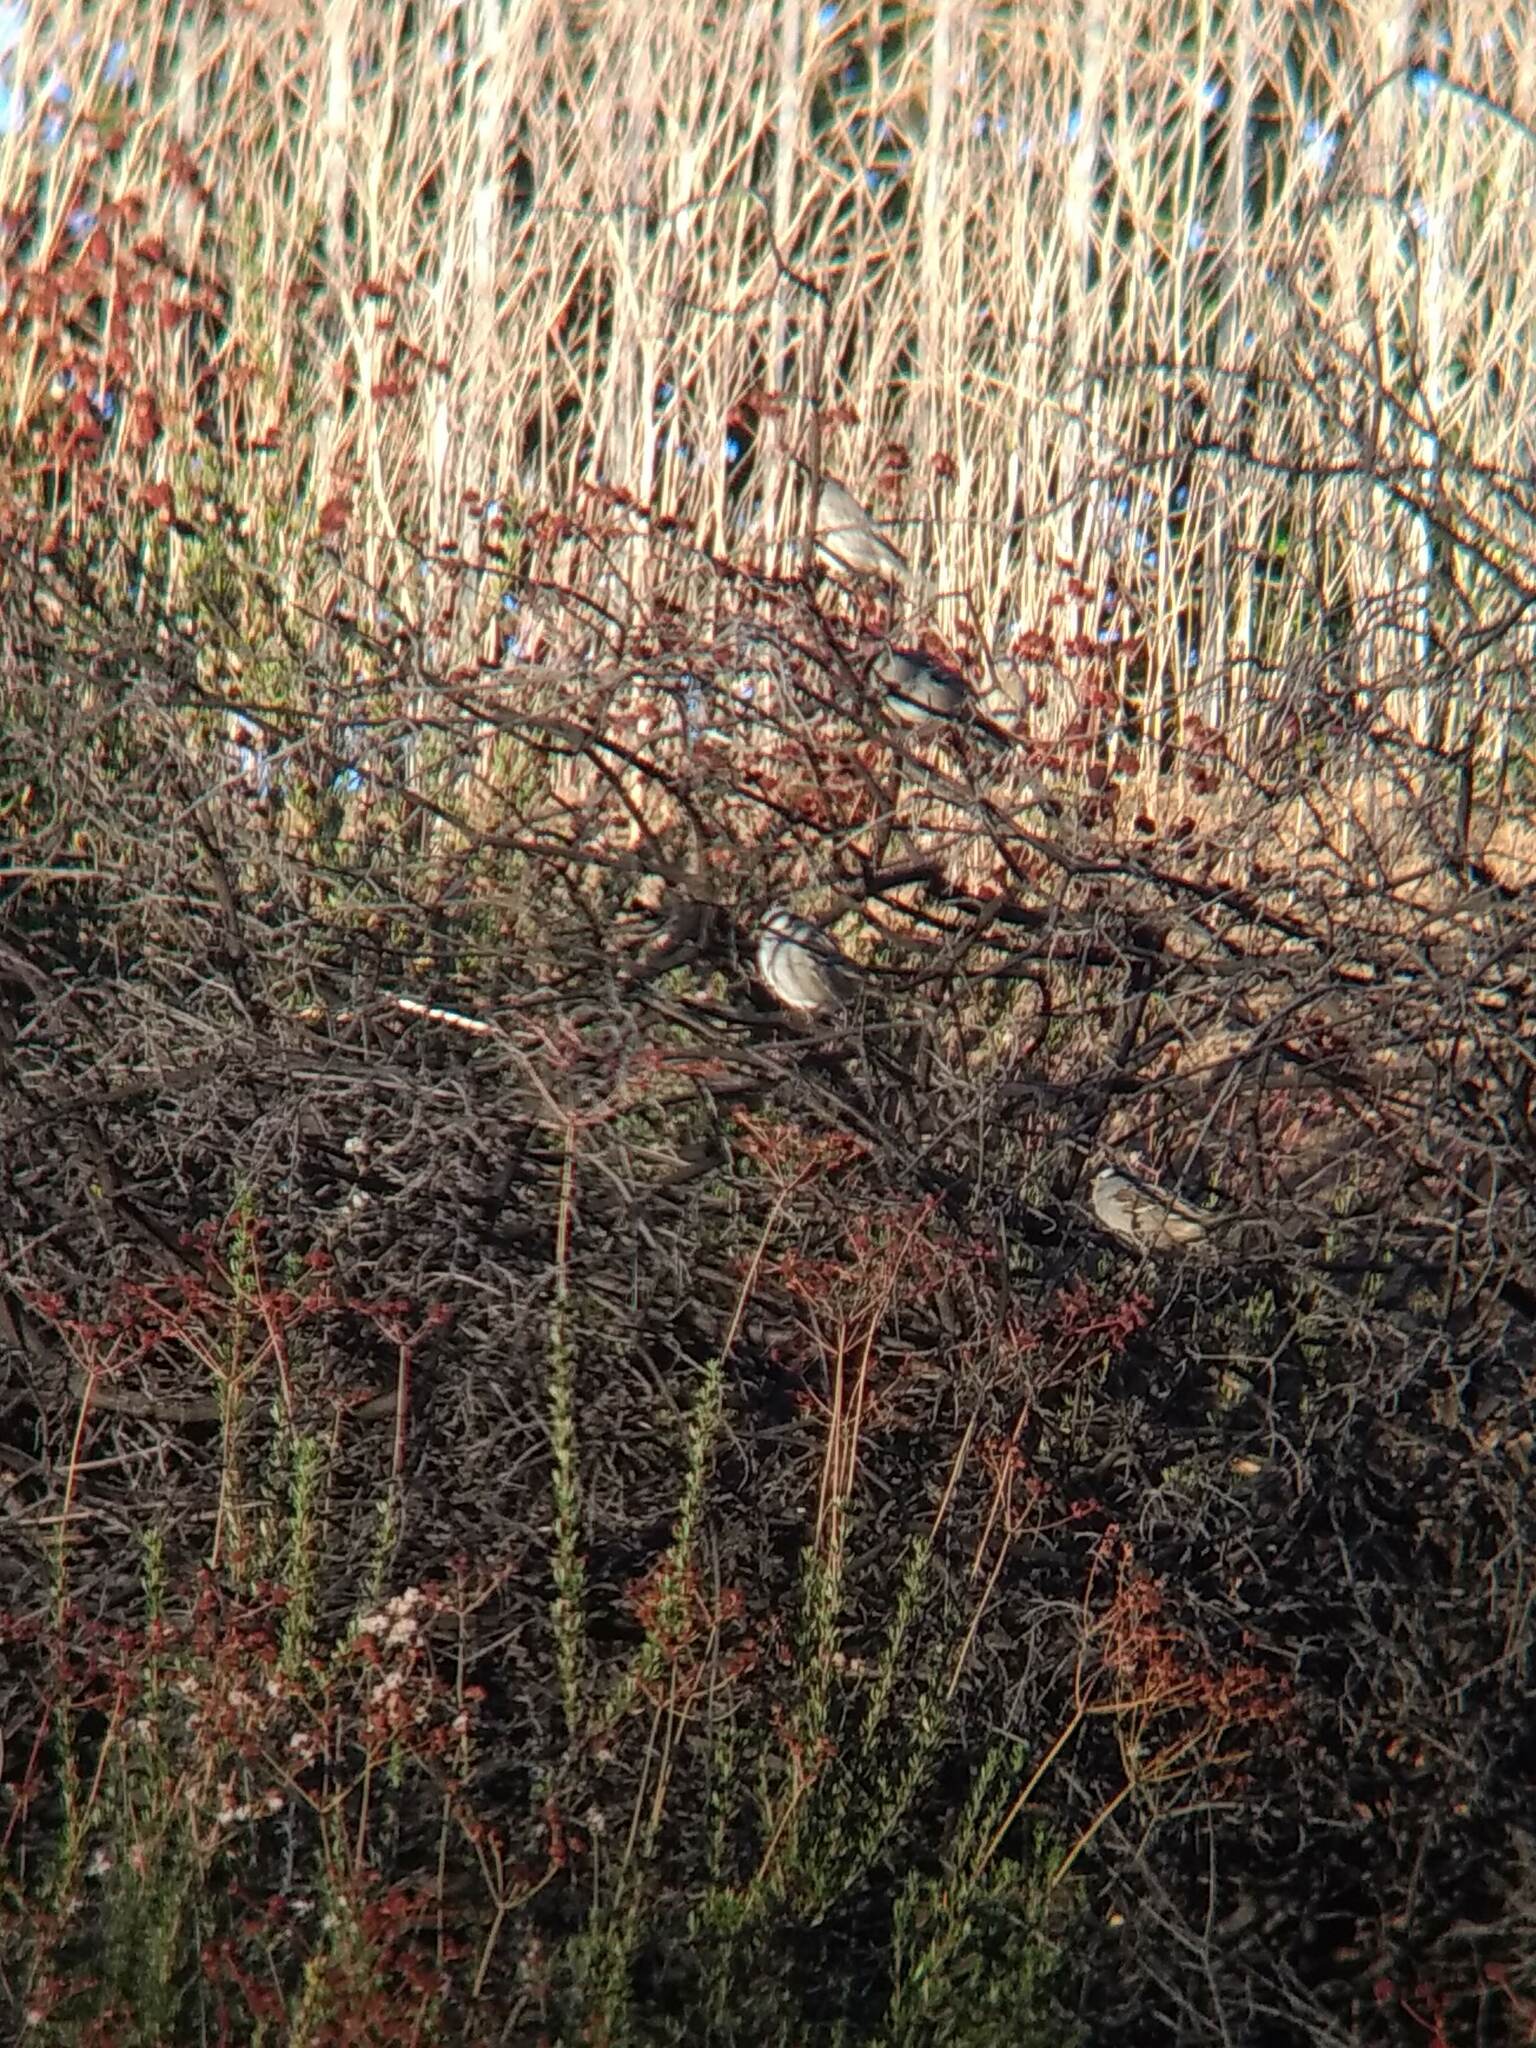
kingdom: Animalia
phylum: Chordata
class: Aves
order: Passeriformes
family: Passerellidae
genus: Zonotrichia
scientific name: Zonotrichia leucophrys
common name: White-crowned sparrow
